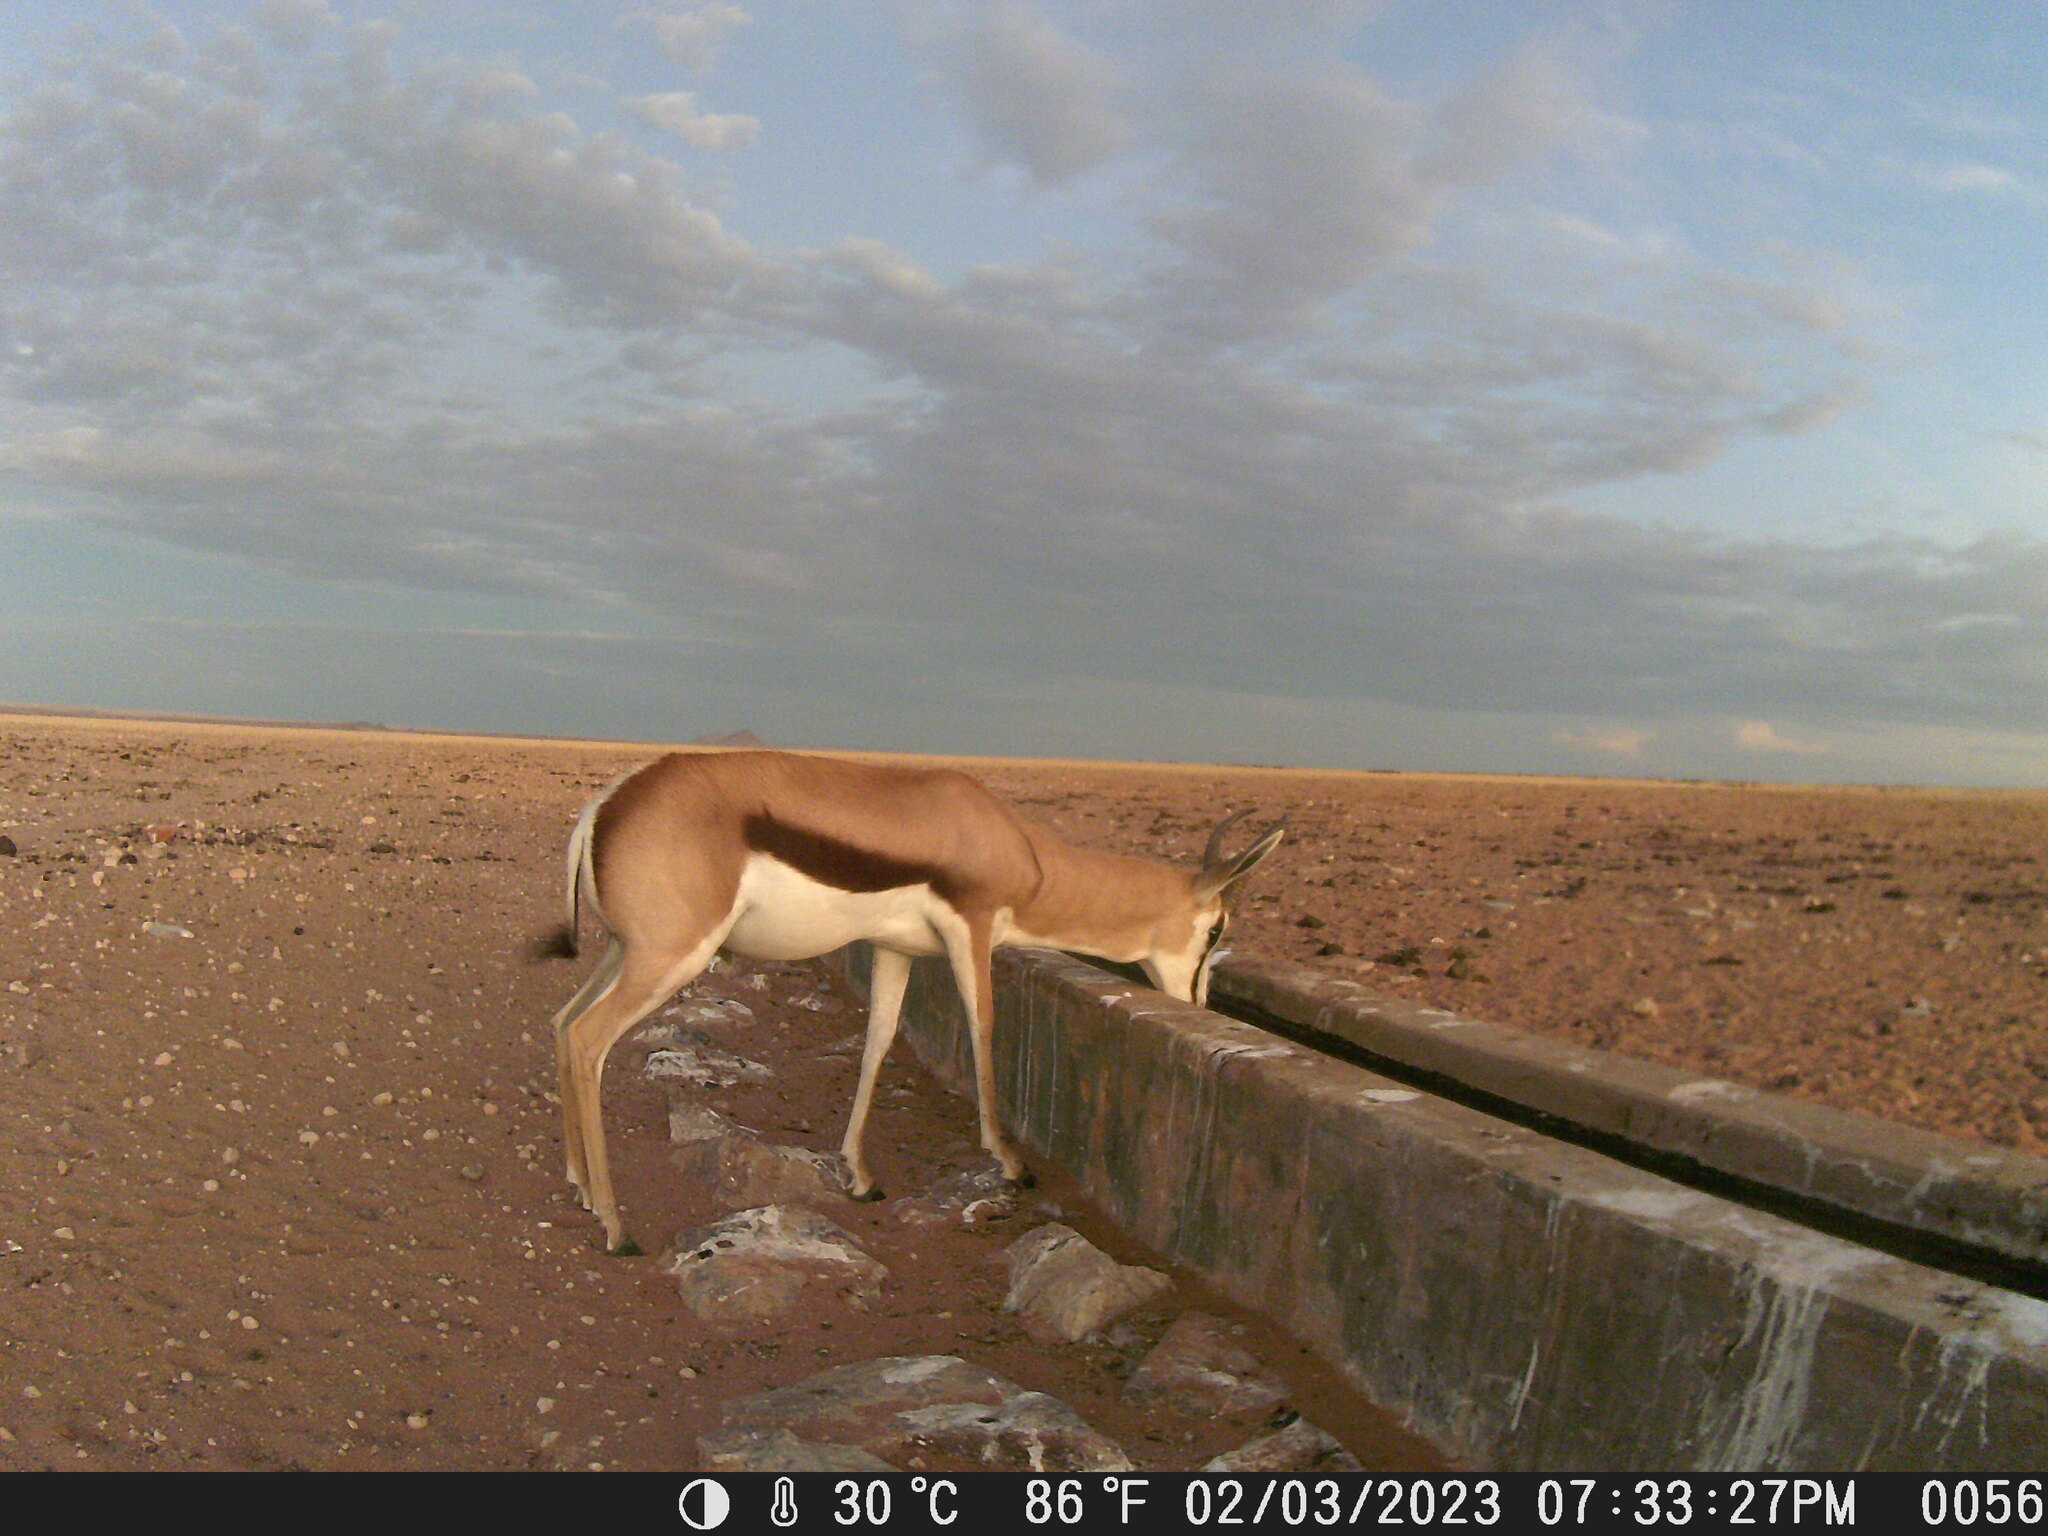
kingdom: Animalia
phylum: Chordata
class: Mammalia
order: Artiodactyla
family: Bovidae
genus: Antidorcas
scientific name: Antidorcas marsupialis
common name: Springbok
